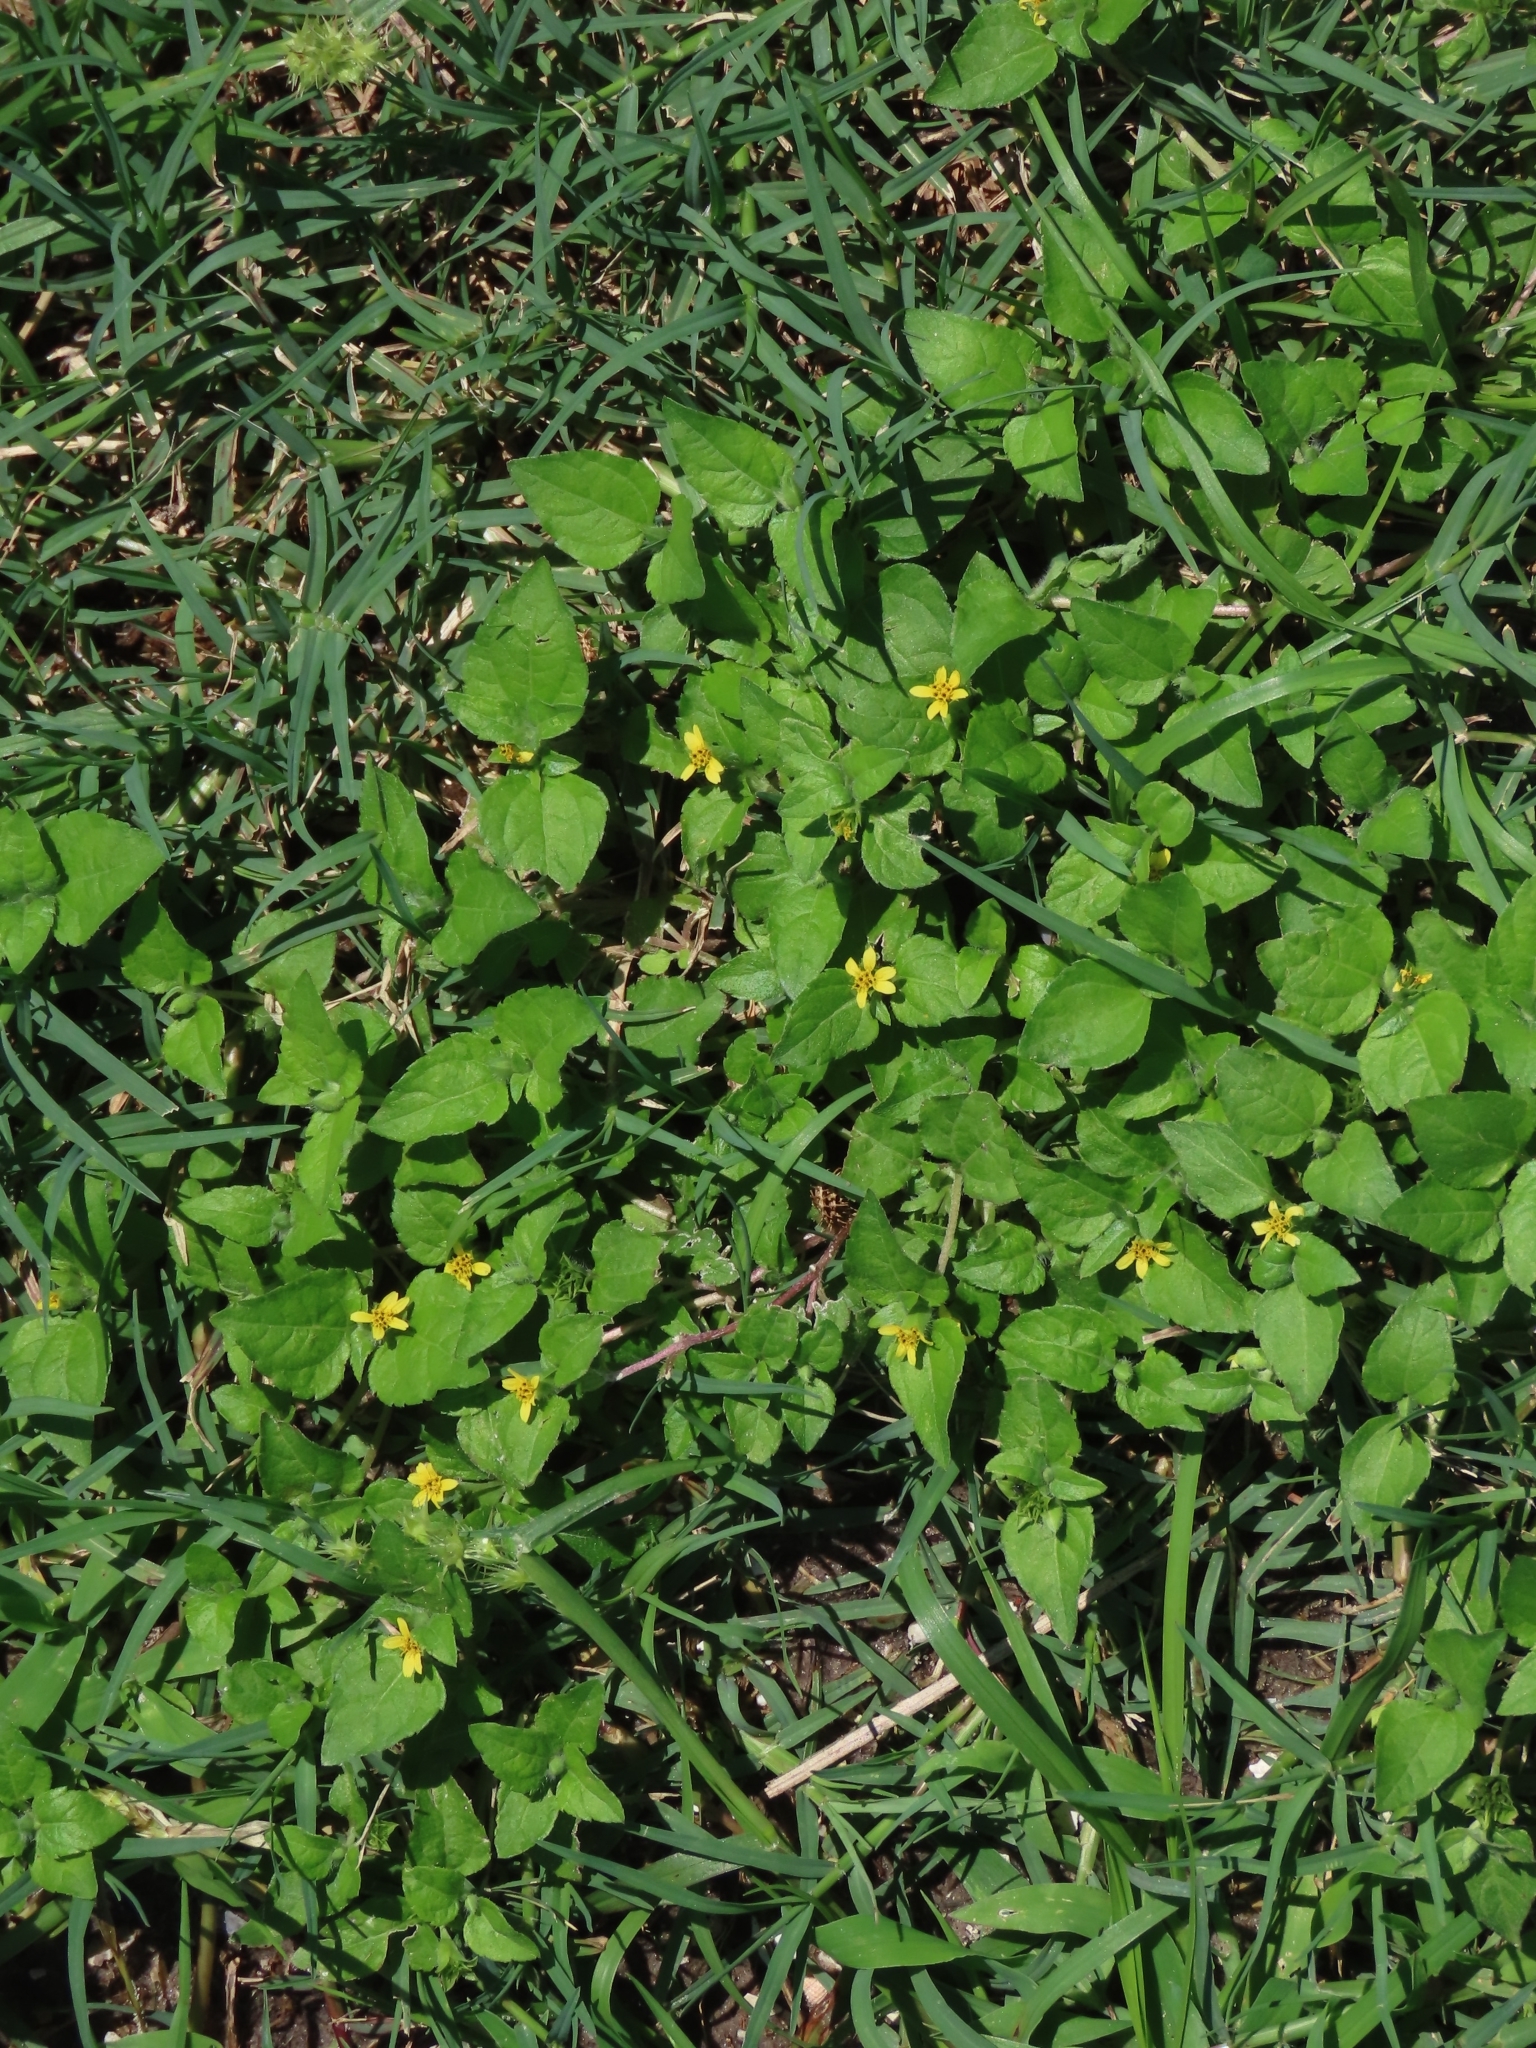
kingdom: Plantae
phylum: Tracheophyta
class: Magnoliopsida
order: Asterales
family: Asteraceae
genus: Calyptocarpus
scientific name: Calyptocarpus vialis
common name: Straggler daisy
